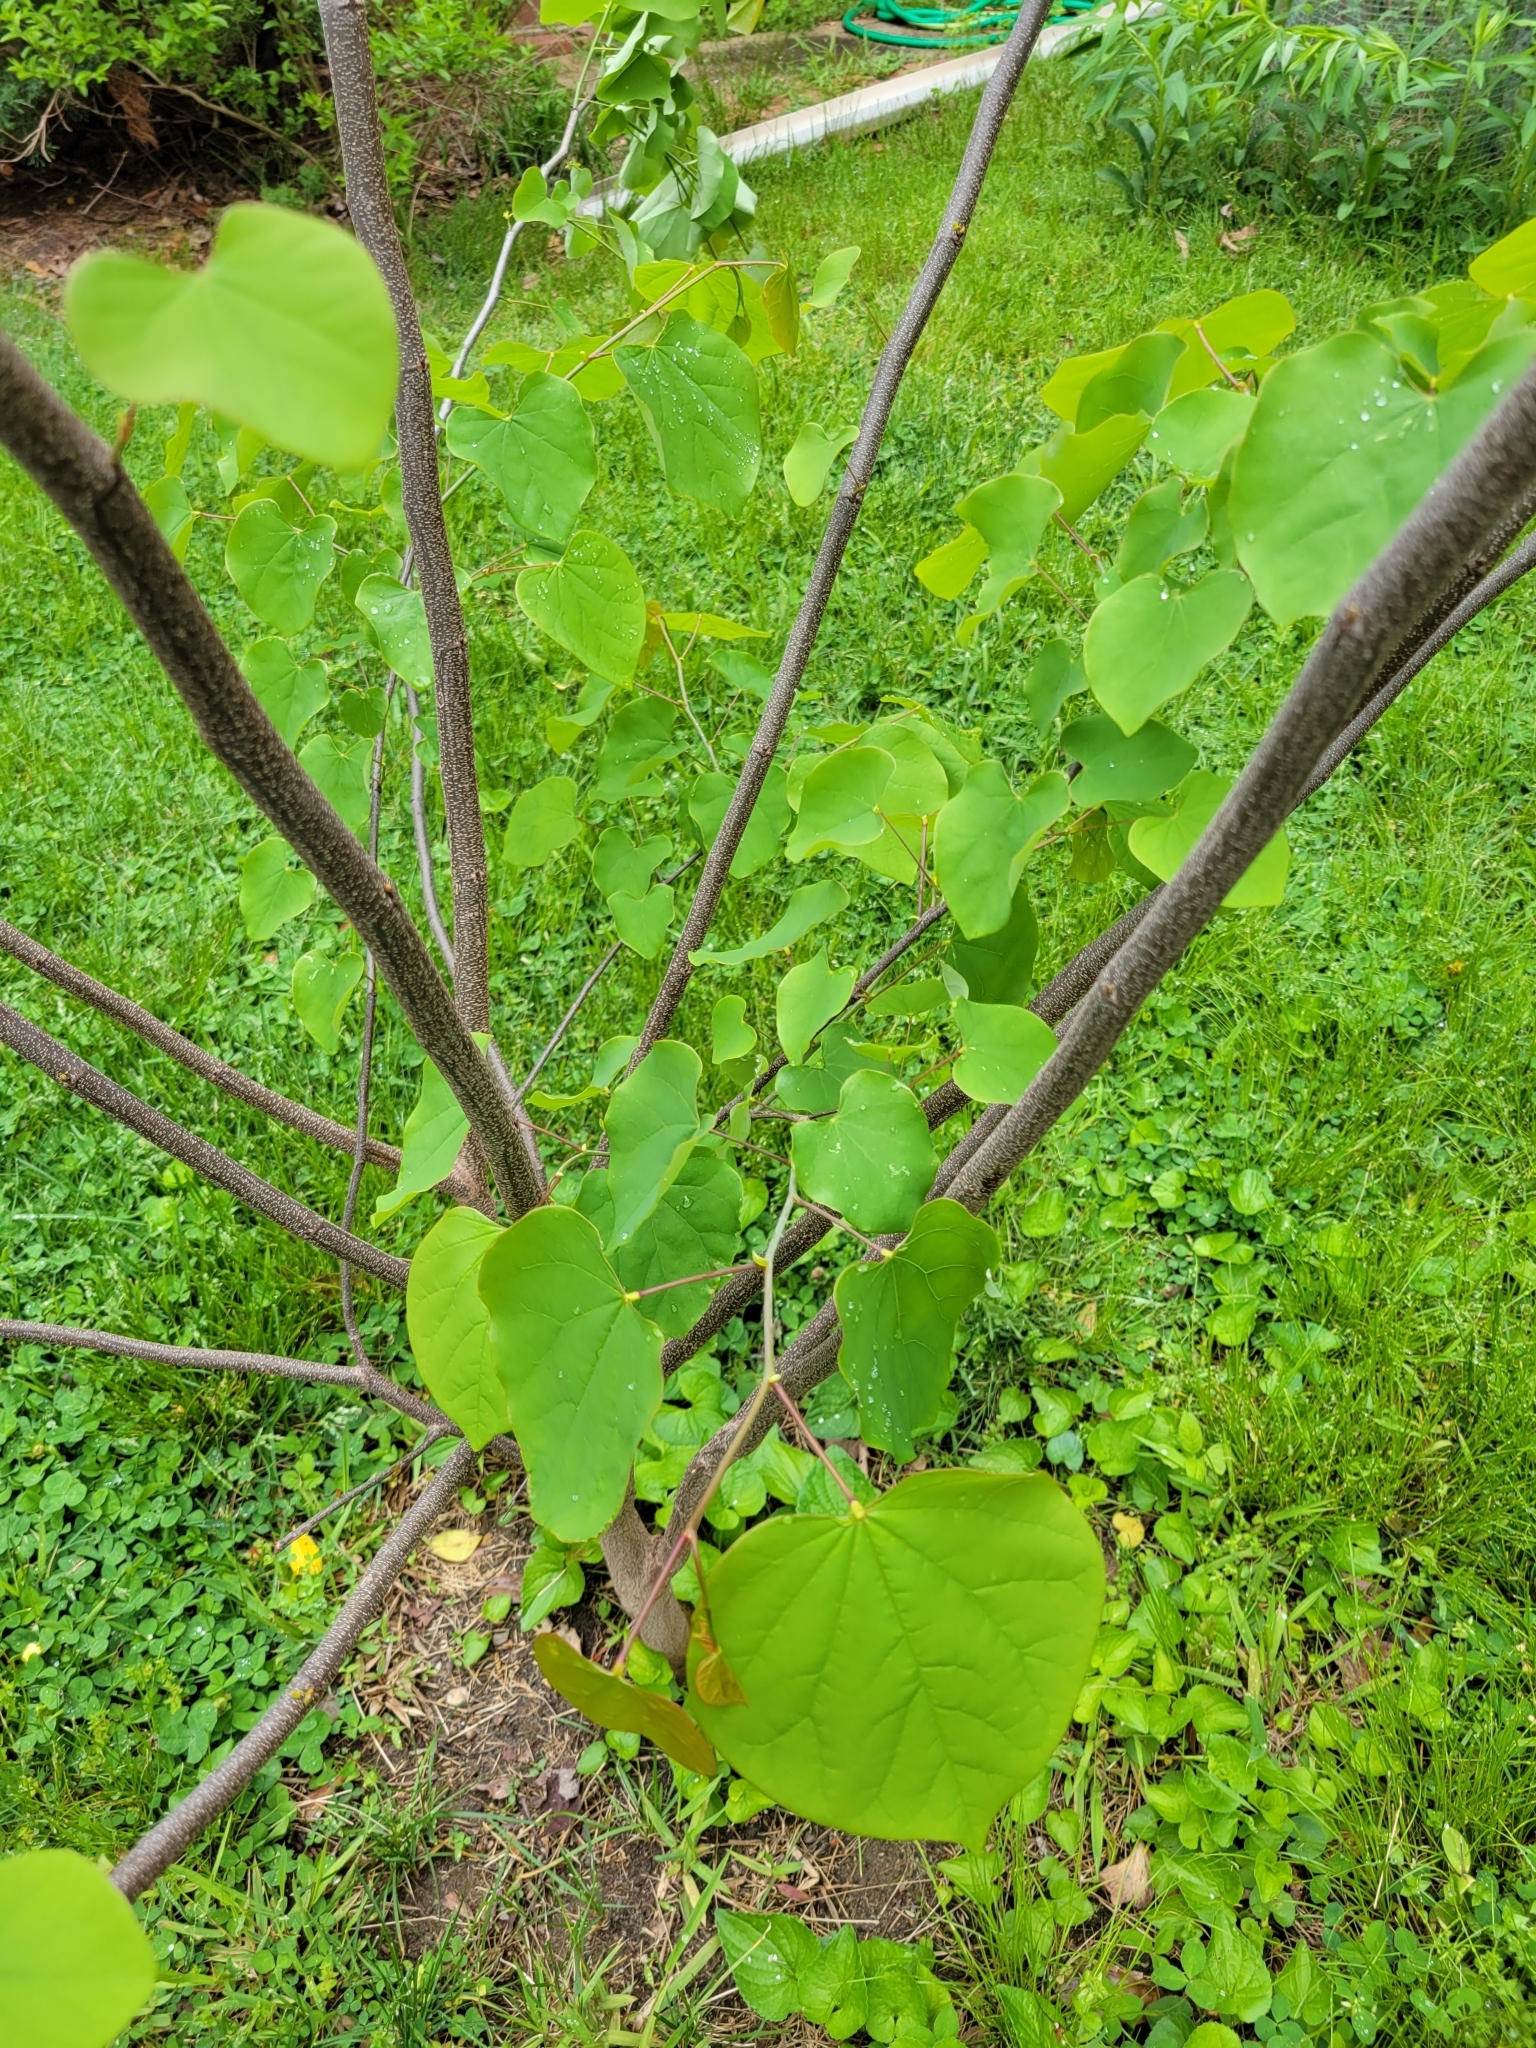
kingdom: Plantae
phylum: Tracheophyta
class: Magnoliopsida
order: Fabales
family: Fabaceae
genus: Cercis
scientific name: Cercis canadensis
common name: Eastern redbud
